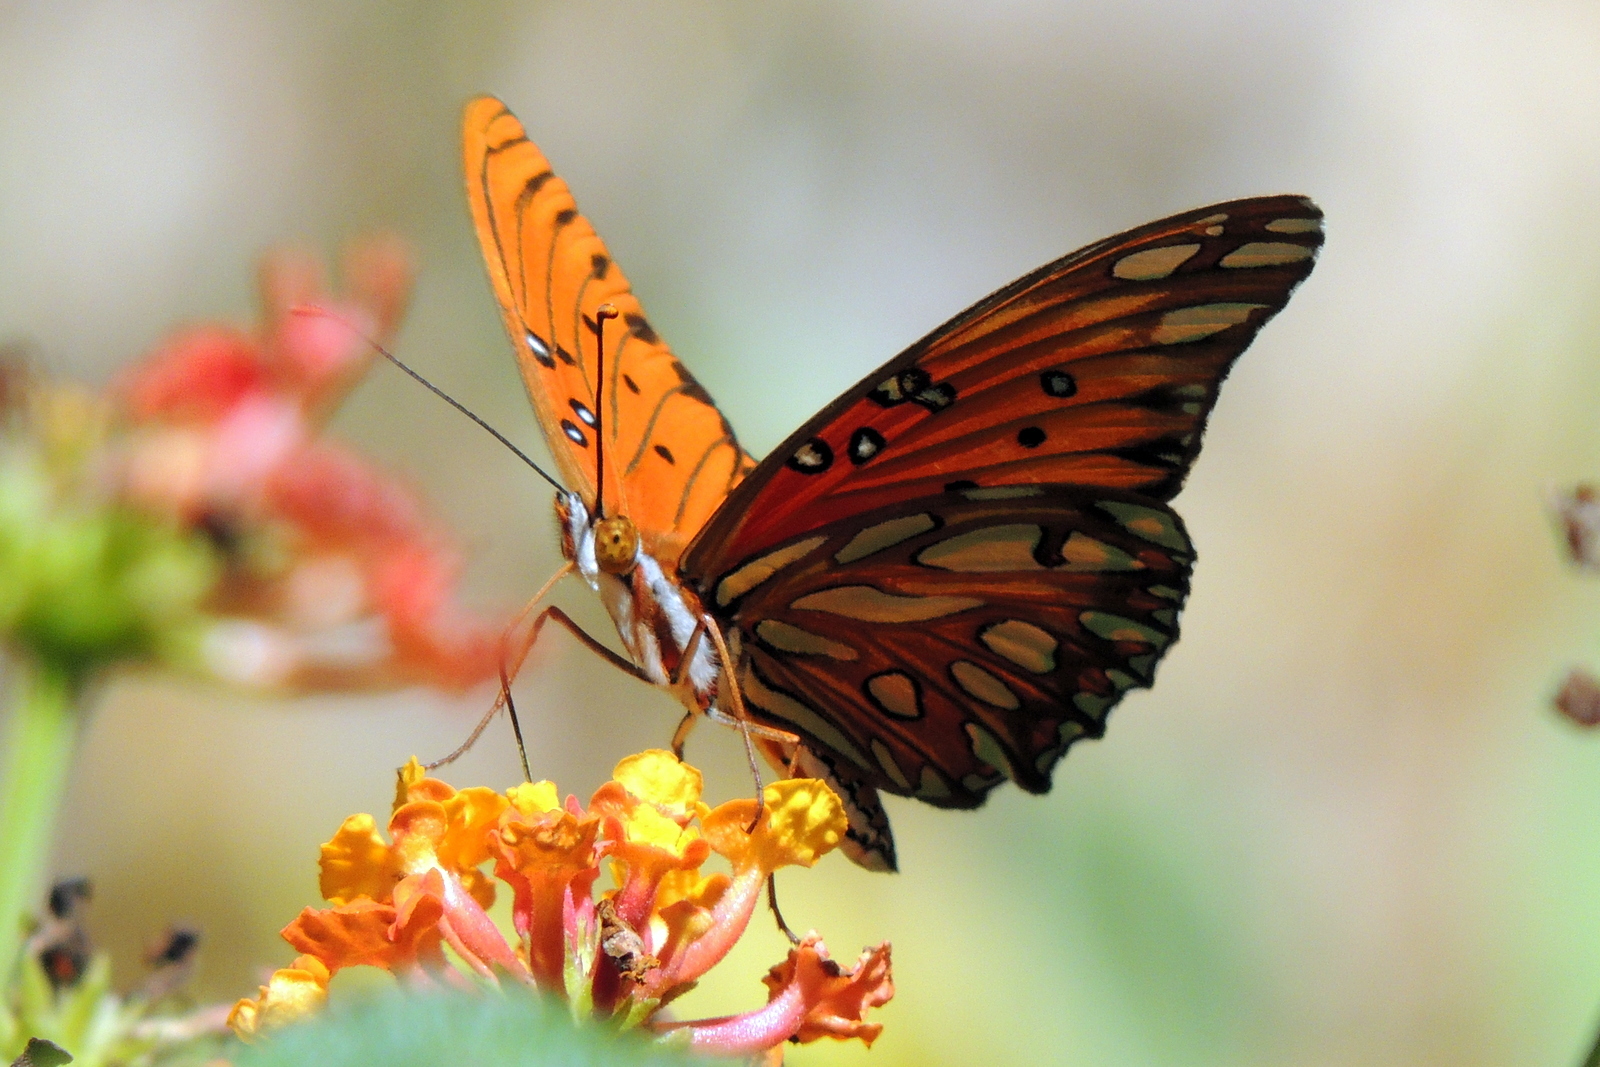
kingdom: Animalia
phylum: Arthropoda
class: Insecta
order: Lepidoptera
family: Nymphalidae
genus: Dione
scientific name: Dione vanillae
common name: Gulf fritillary
